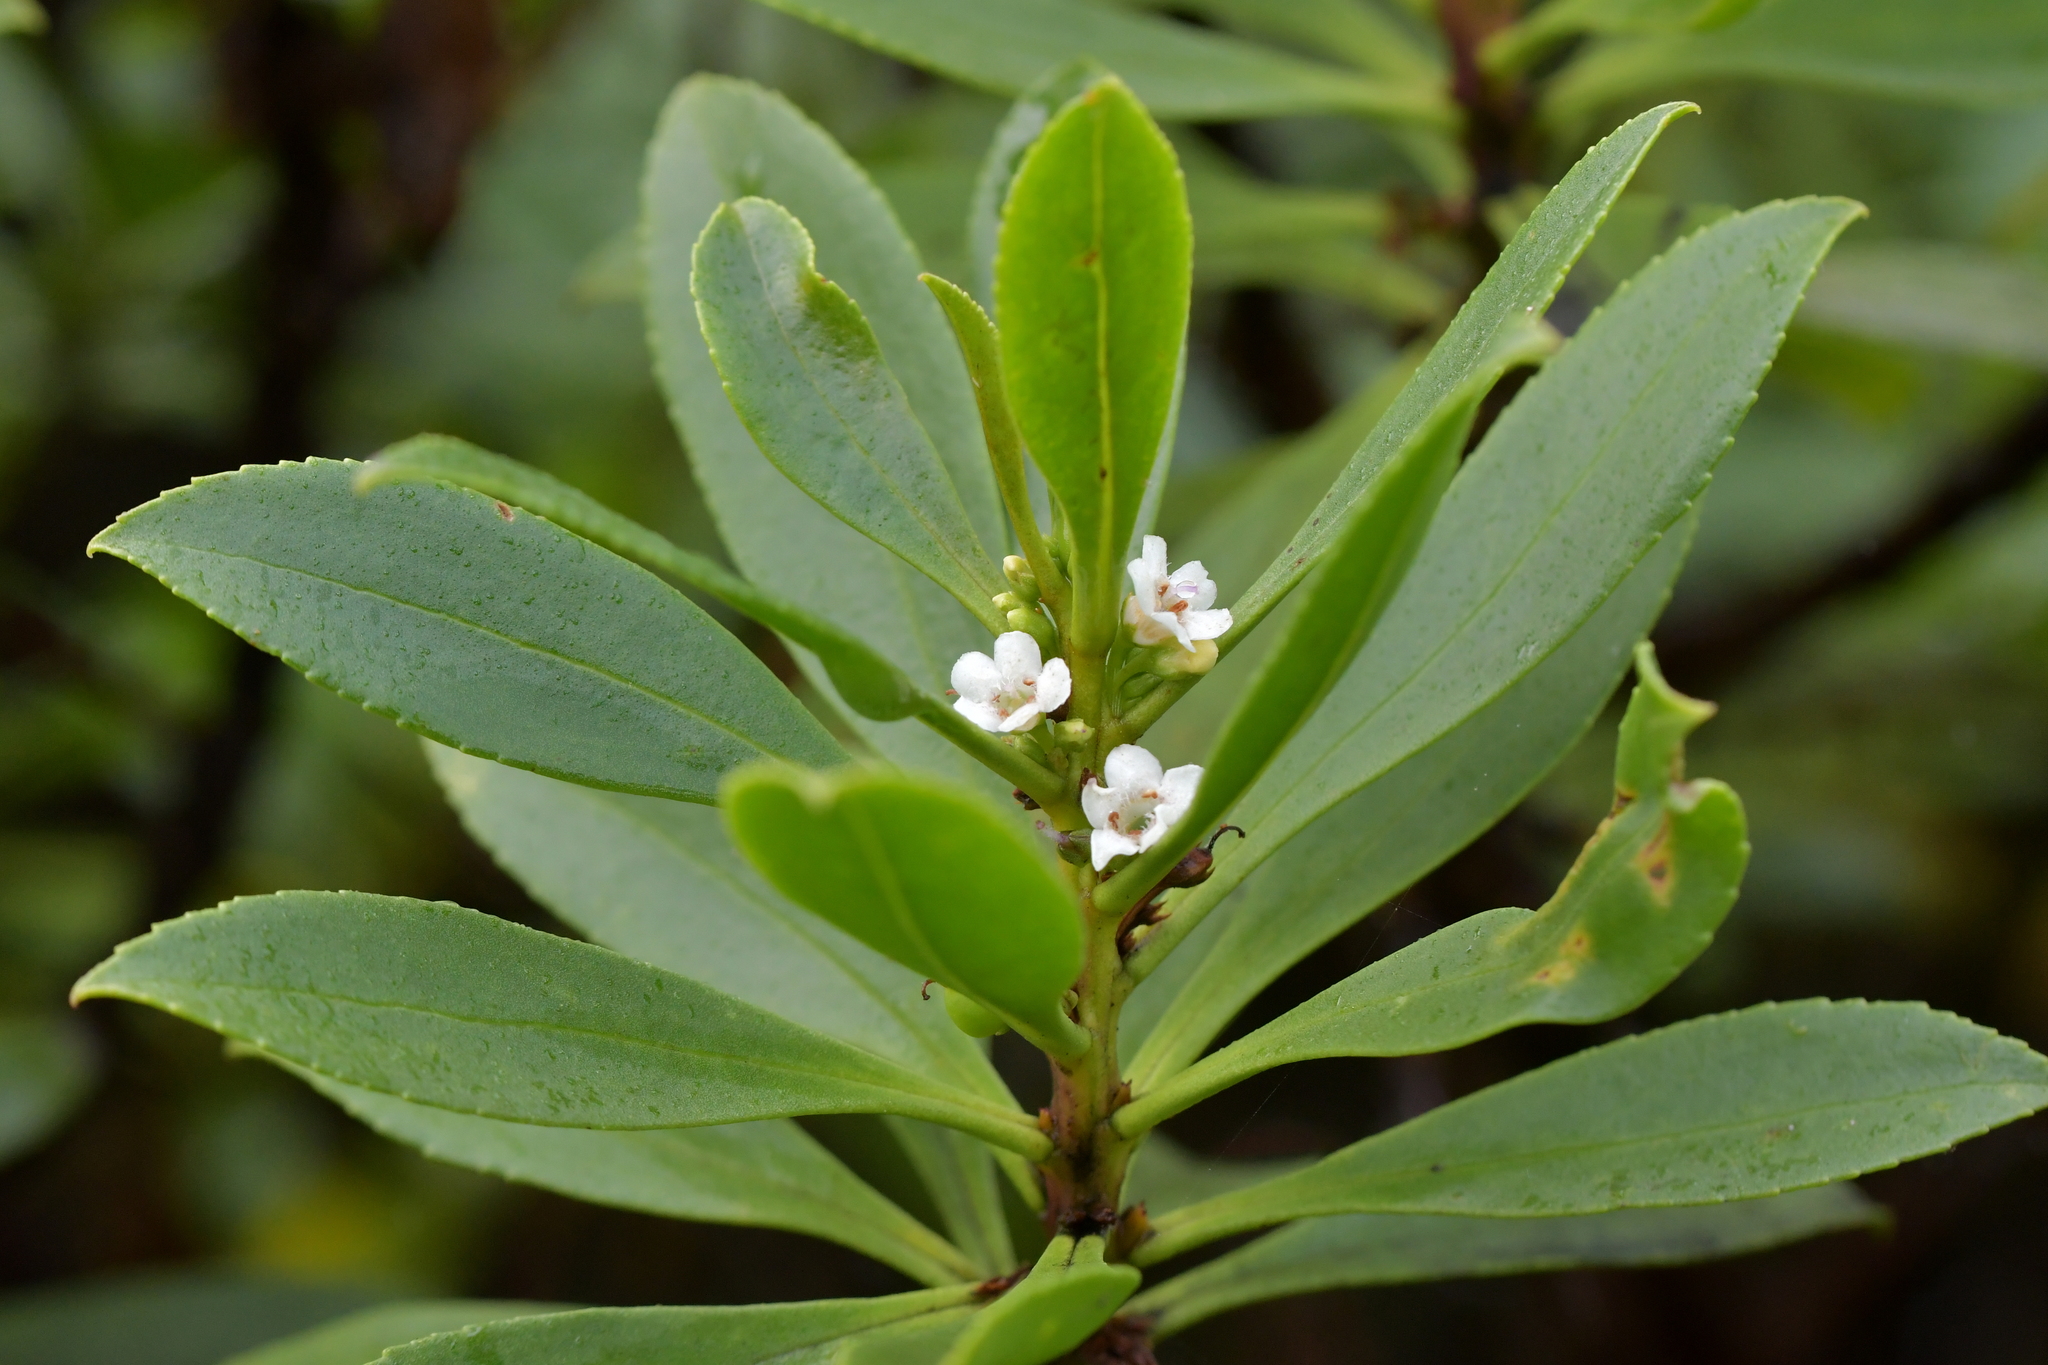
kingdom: Plantae
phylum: Tracheophyta
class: Magnoliopsida
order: Lamiales
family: Scrophulariaceae
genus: Myoporum
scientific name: Myoporum laetum
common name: Ngaio tree
